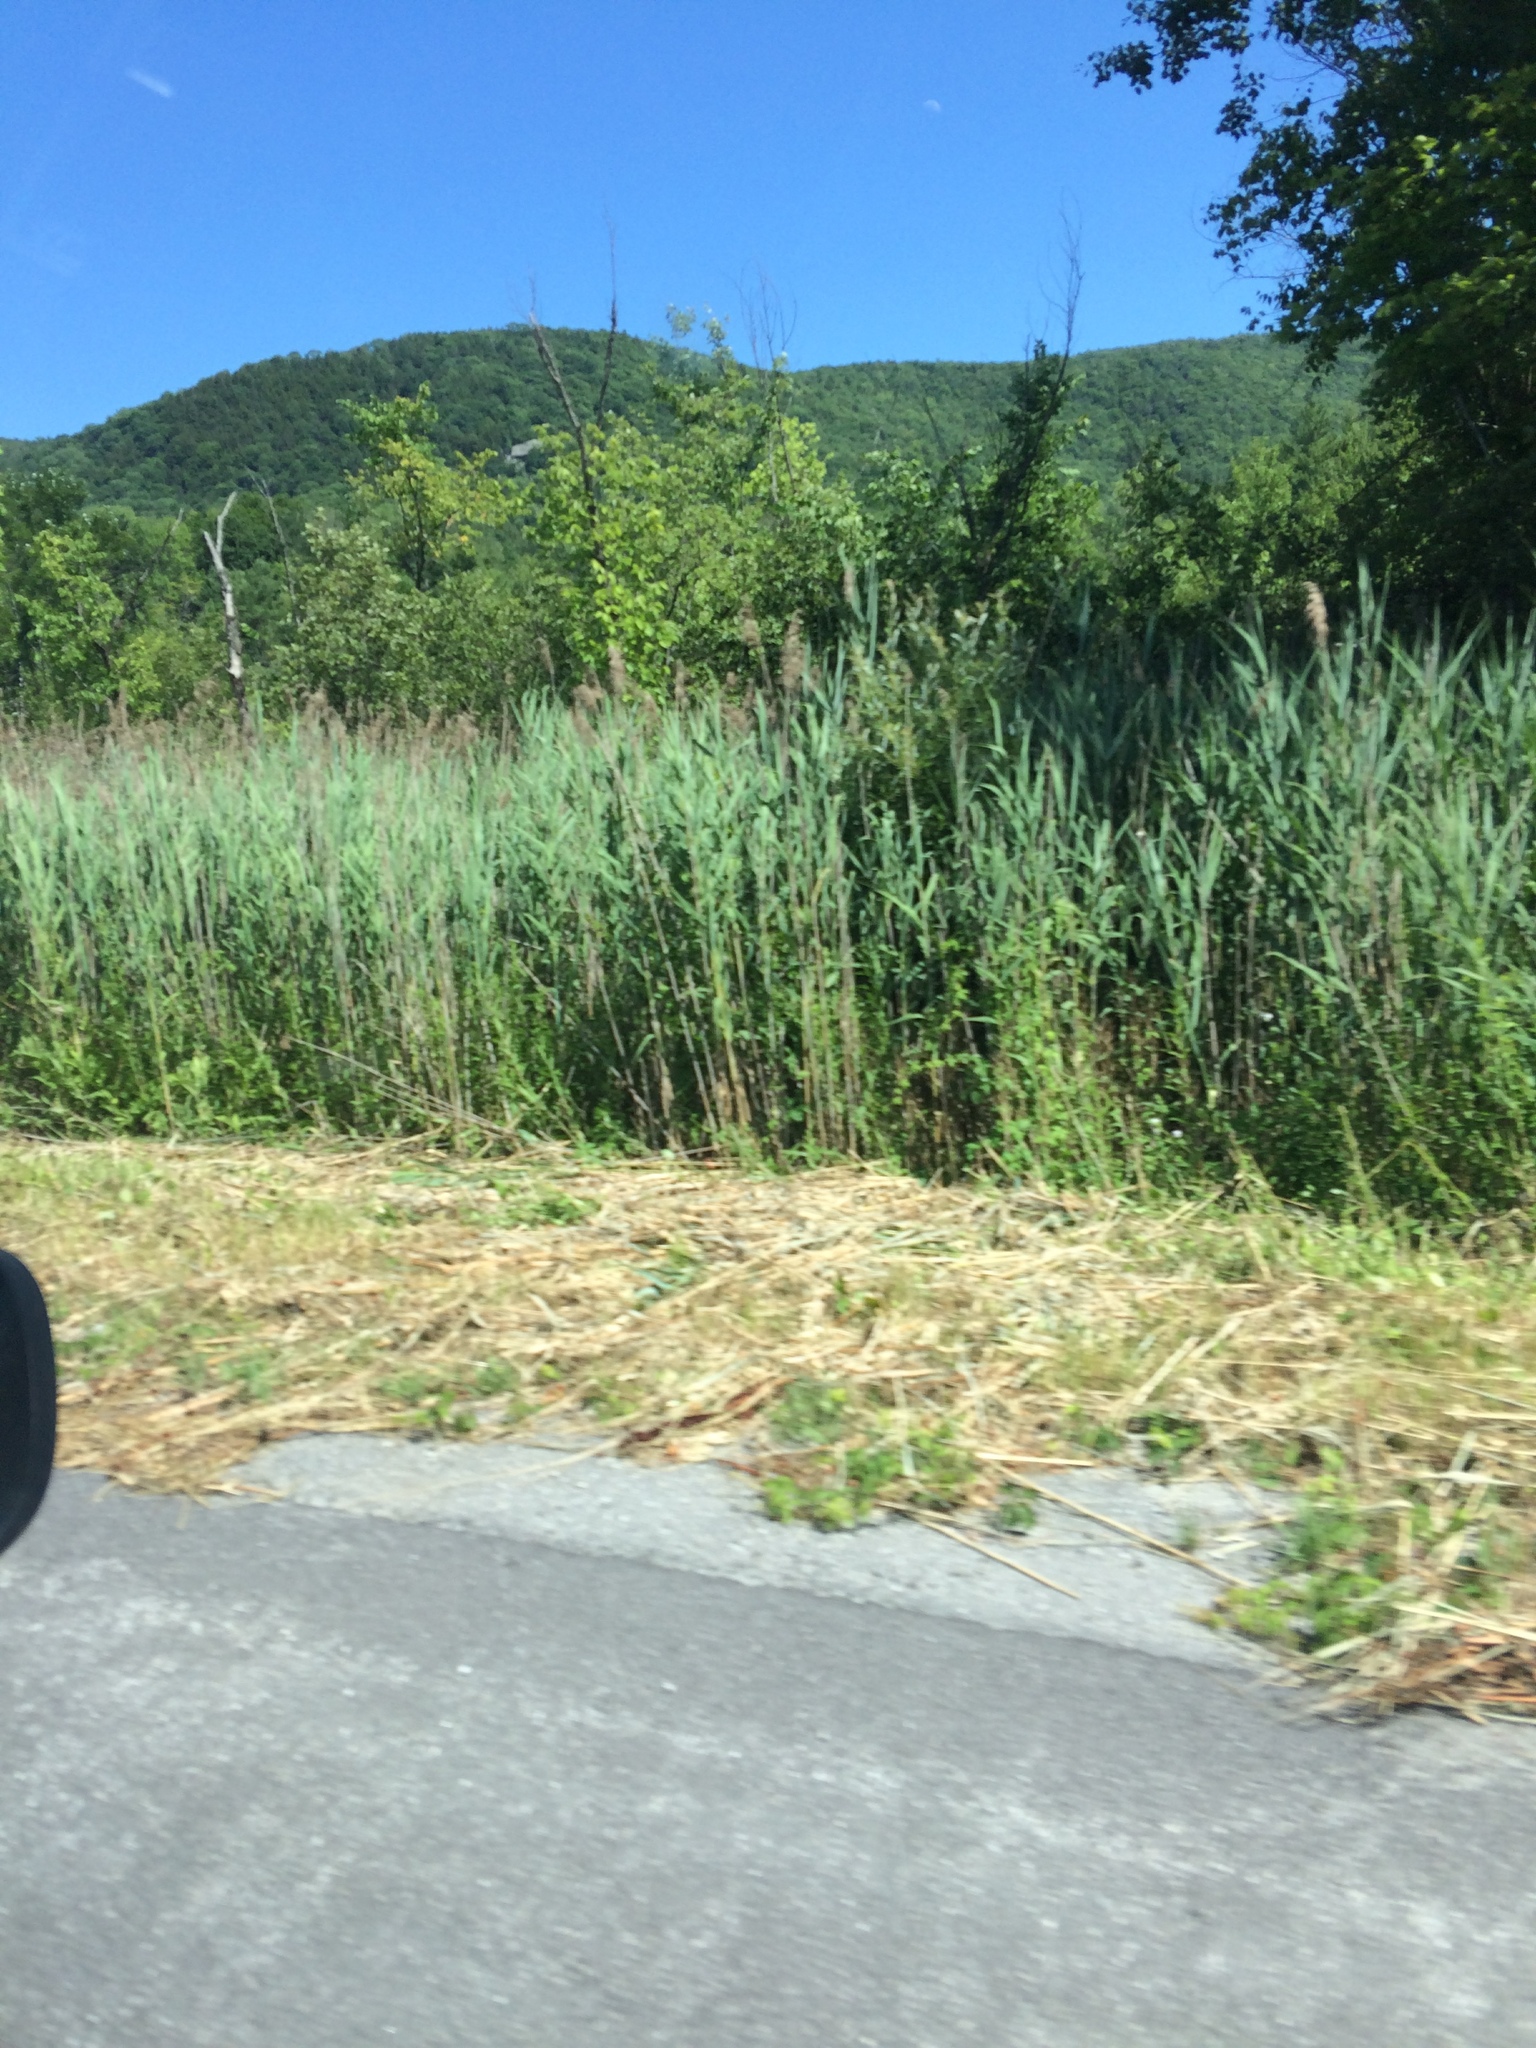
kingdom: Plantae
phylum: Tracheophyta
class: Liliopsida
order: Poales
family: Poaceae
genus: Phragmites
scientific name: Phragmites australis
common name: Common reed
